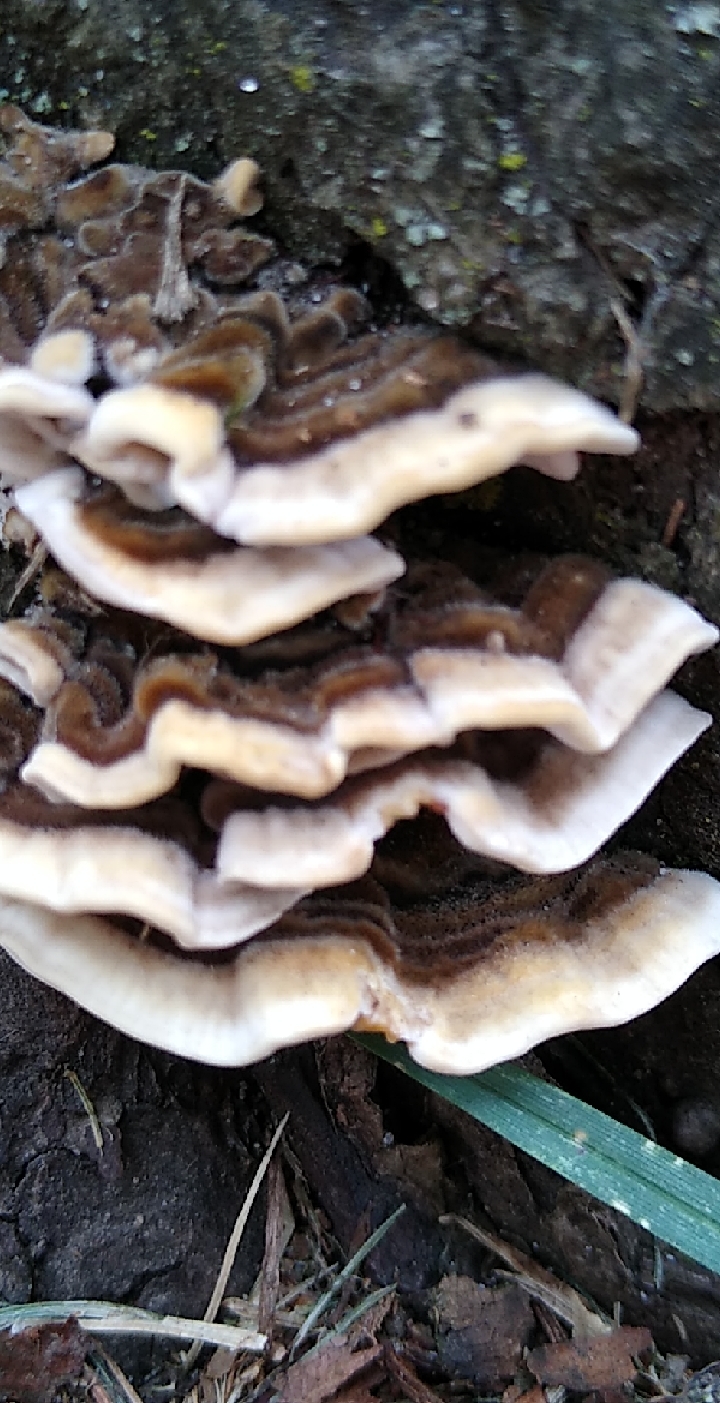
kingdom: Fungi
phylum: Basidiomycota
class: Agaricomycetes
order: Polyporales
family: Polyporaceae
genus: Trametes
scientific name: Trametes versicolor
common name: Turkeytail
